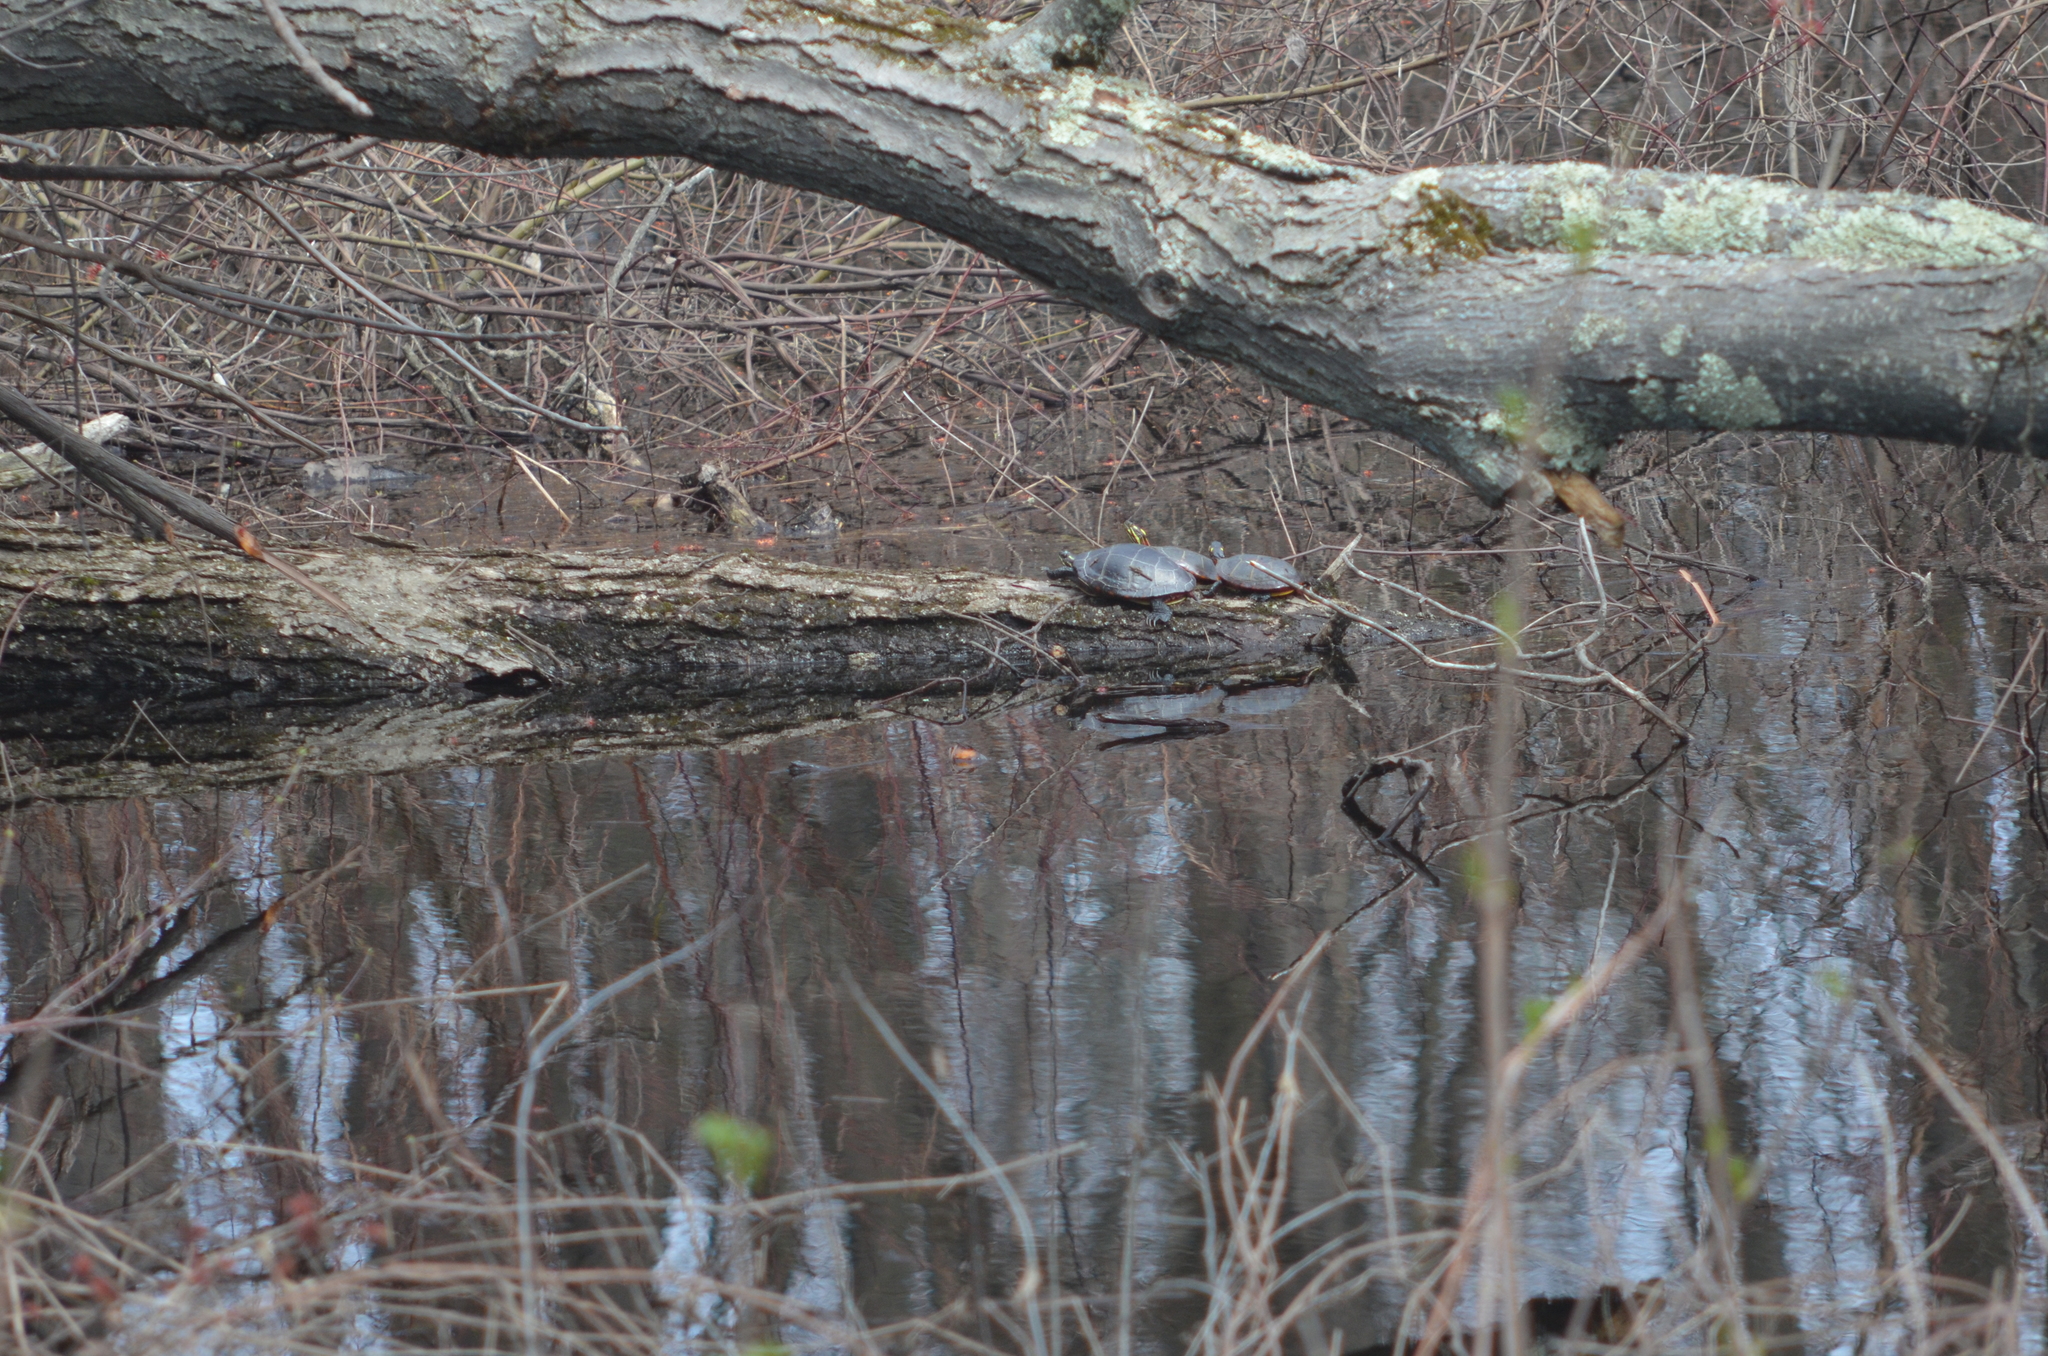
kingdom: Animalia
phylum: Chordata
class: Testudines
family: Emydidae
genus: Chrysemys
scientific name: Chrysemys picta
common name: Painted turtle
